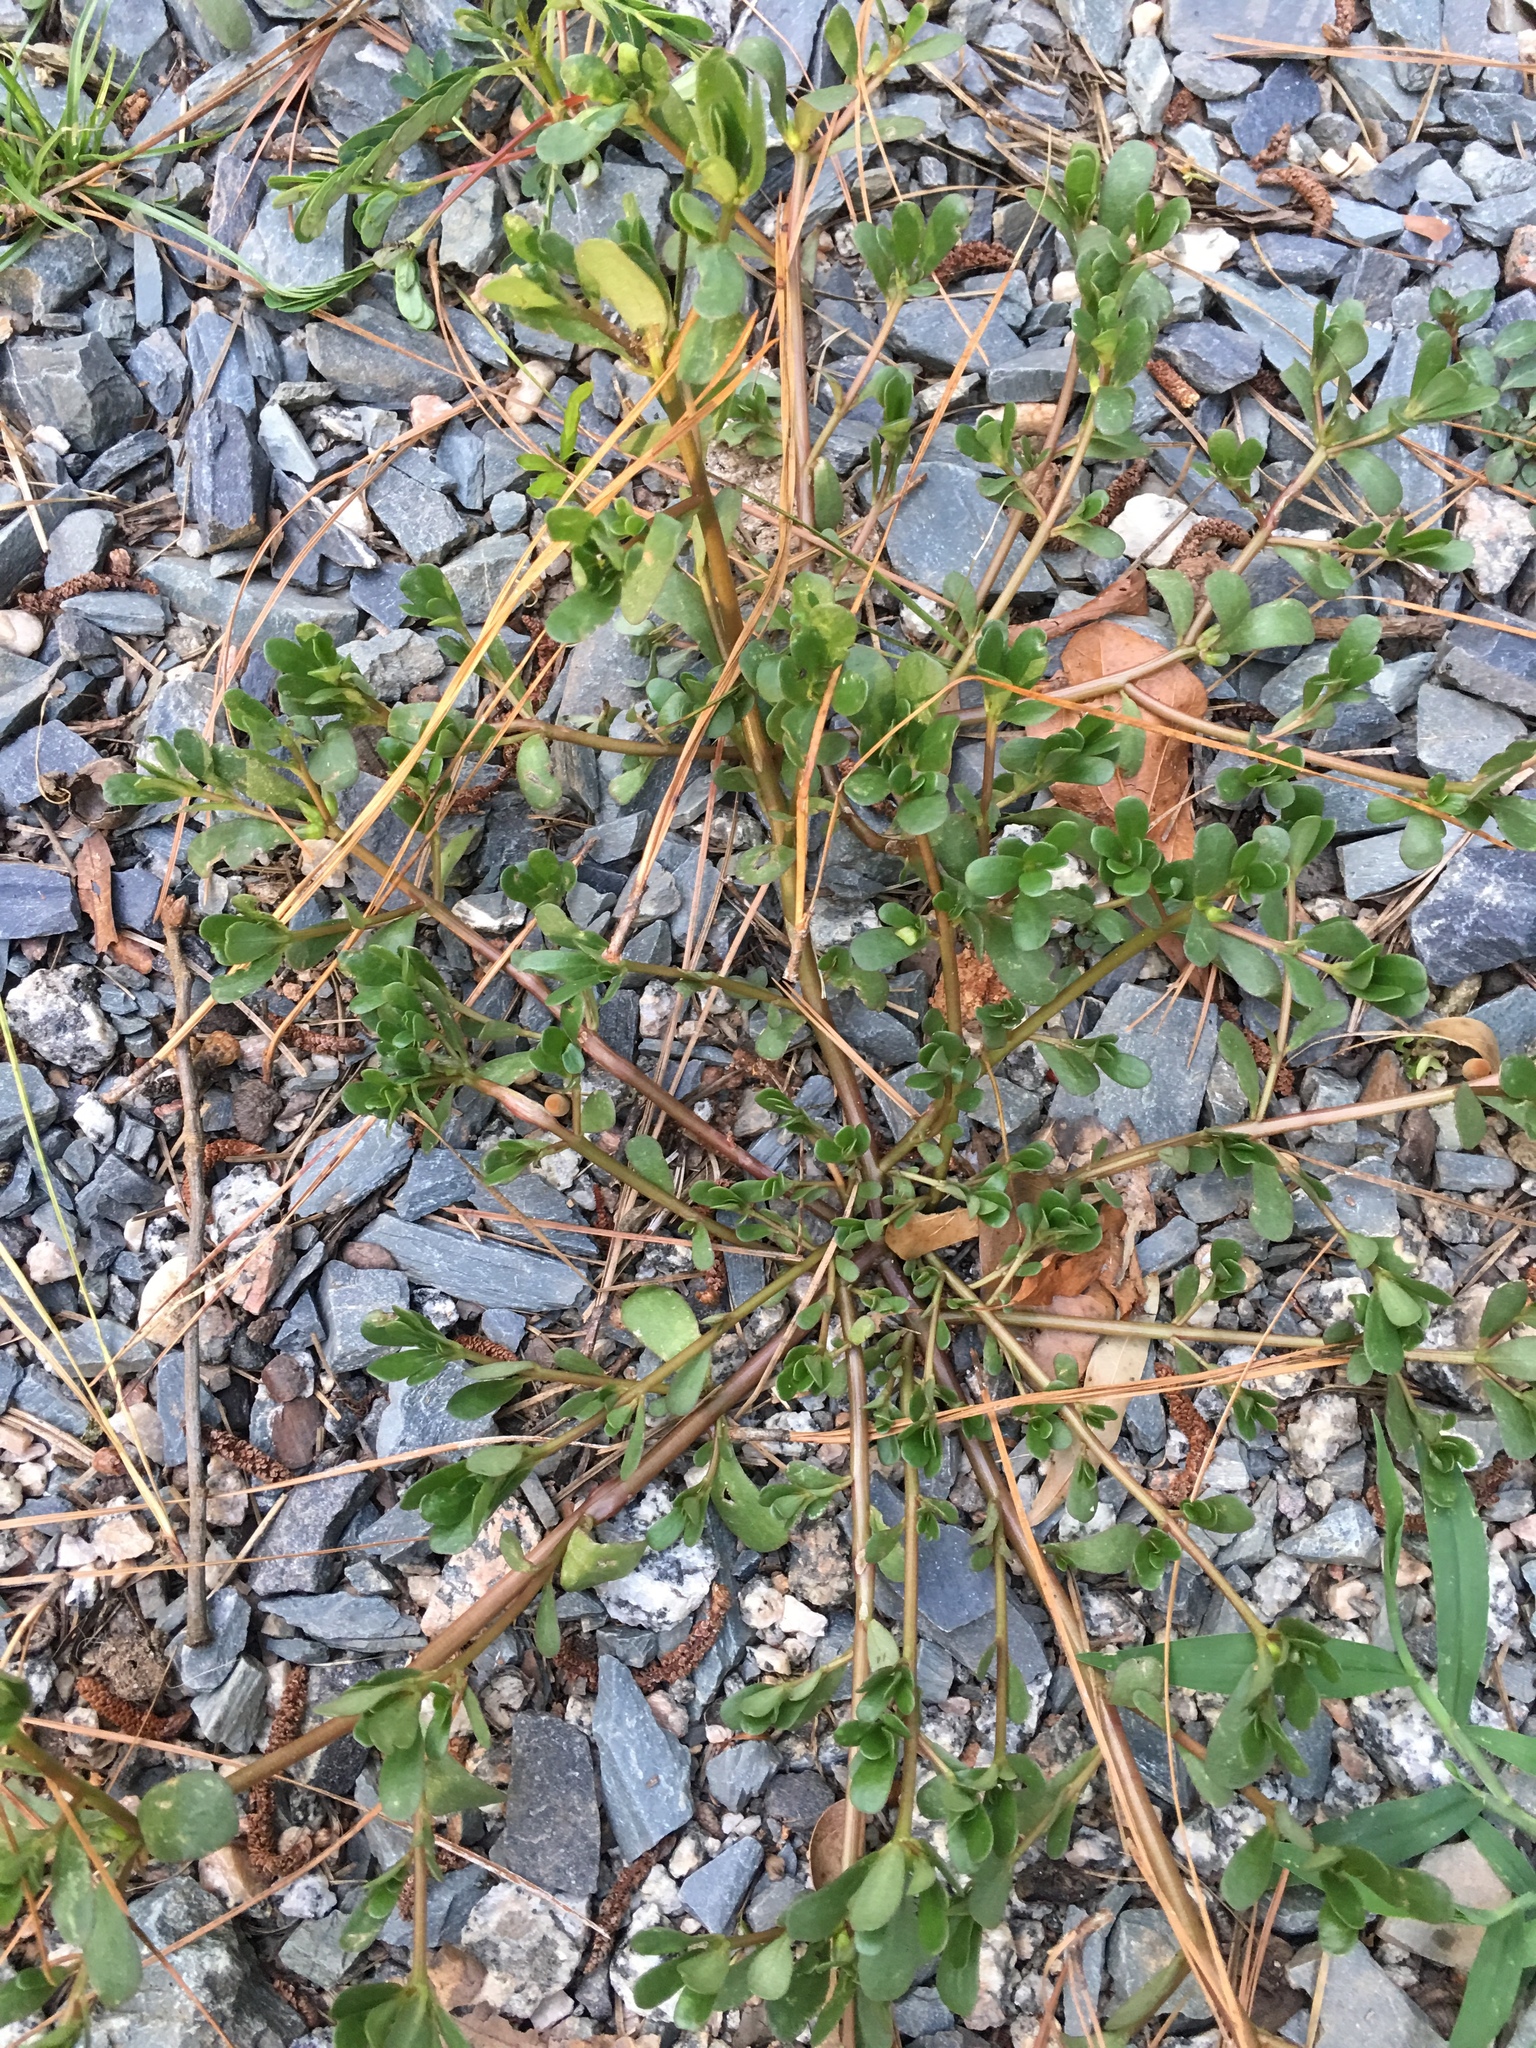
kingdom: Plantae
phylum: Tracheophyta
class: Magnoliopsida
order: Caryophyllales
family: Portulacaceae
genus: Portulaca
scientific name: Portulaca oleracea
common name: Common purslane
